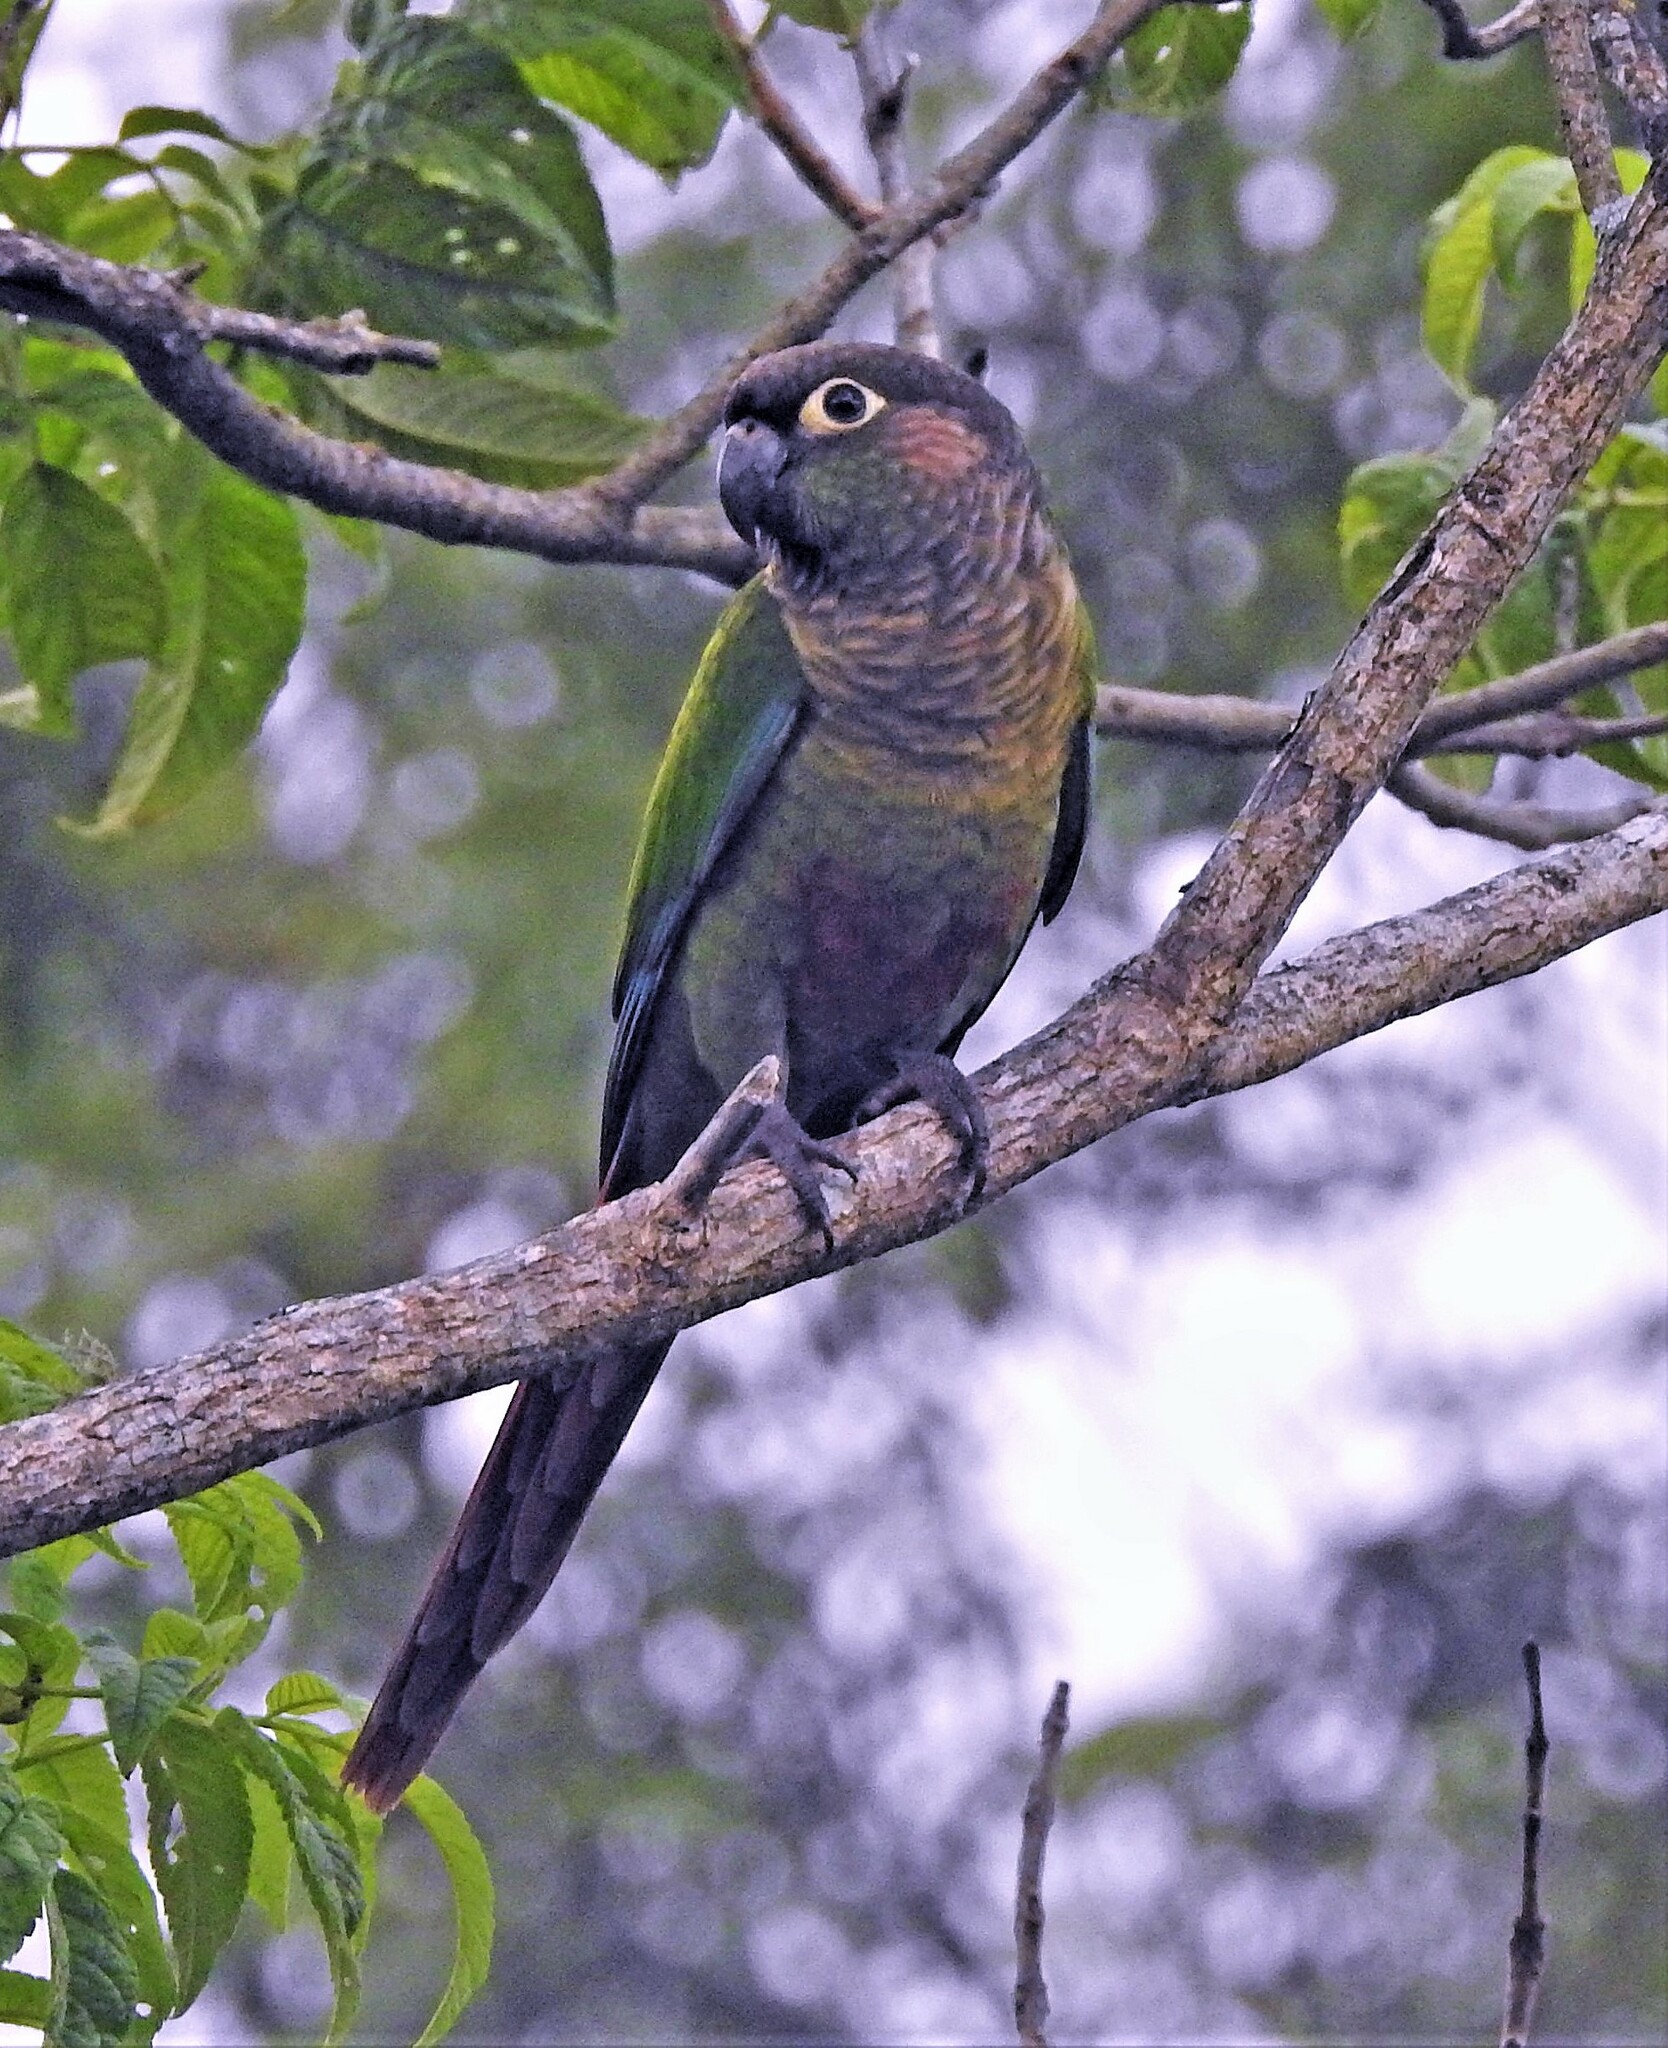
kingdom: Animalia
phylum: Chordata
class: Aves
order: Psittaciformes
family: Psittacidae
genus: Pyrrhura
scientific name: Pyrrhura molinae
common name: Green-cheeked parakeet
